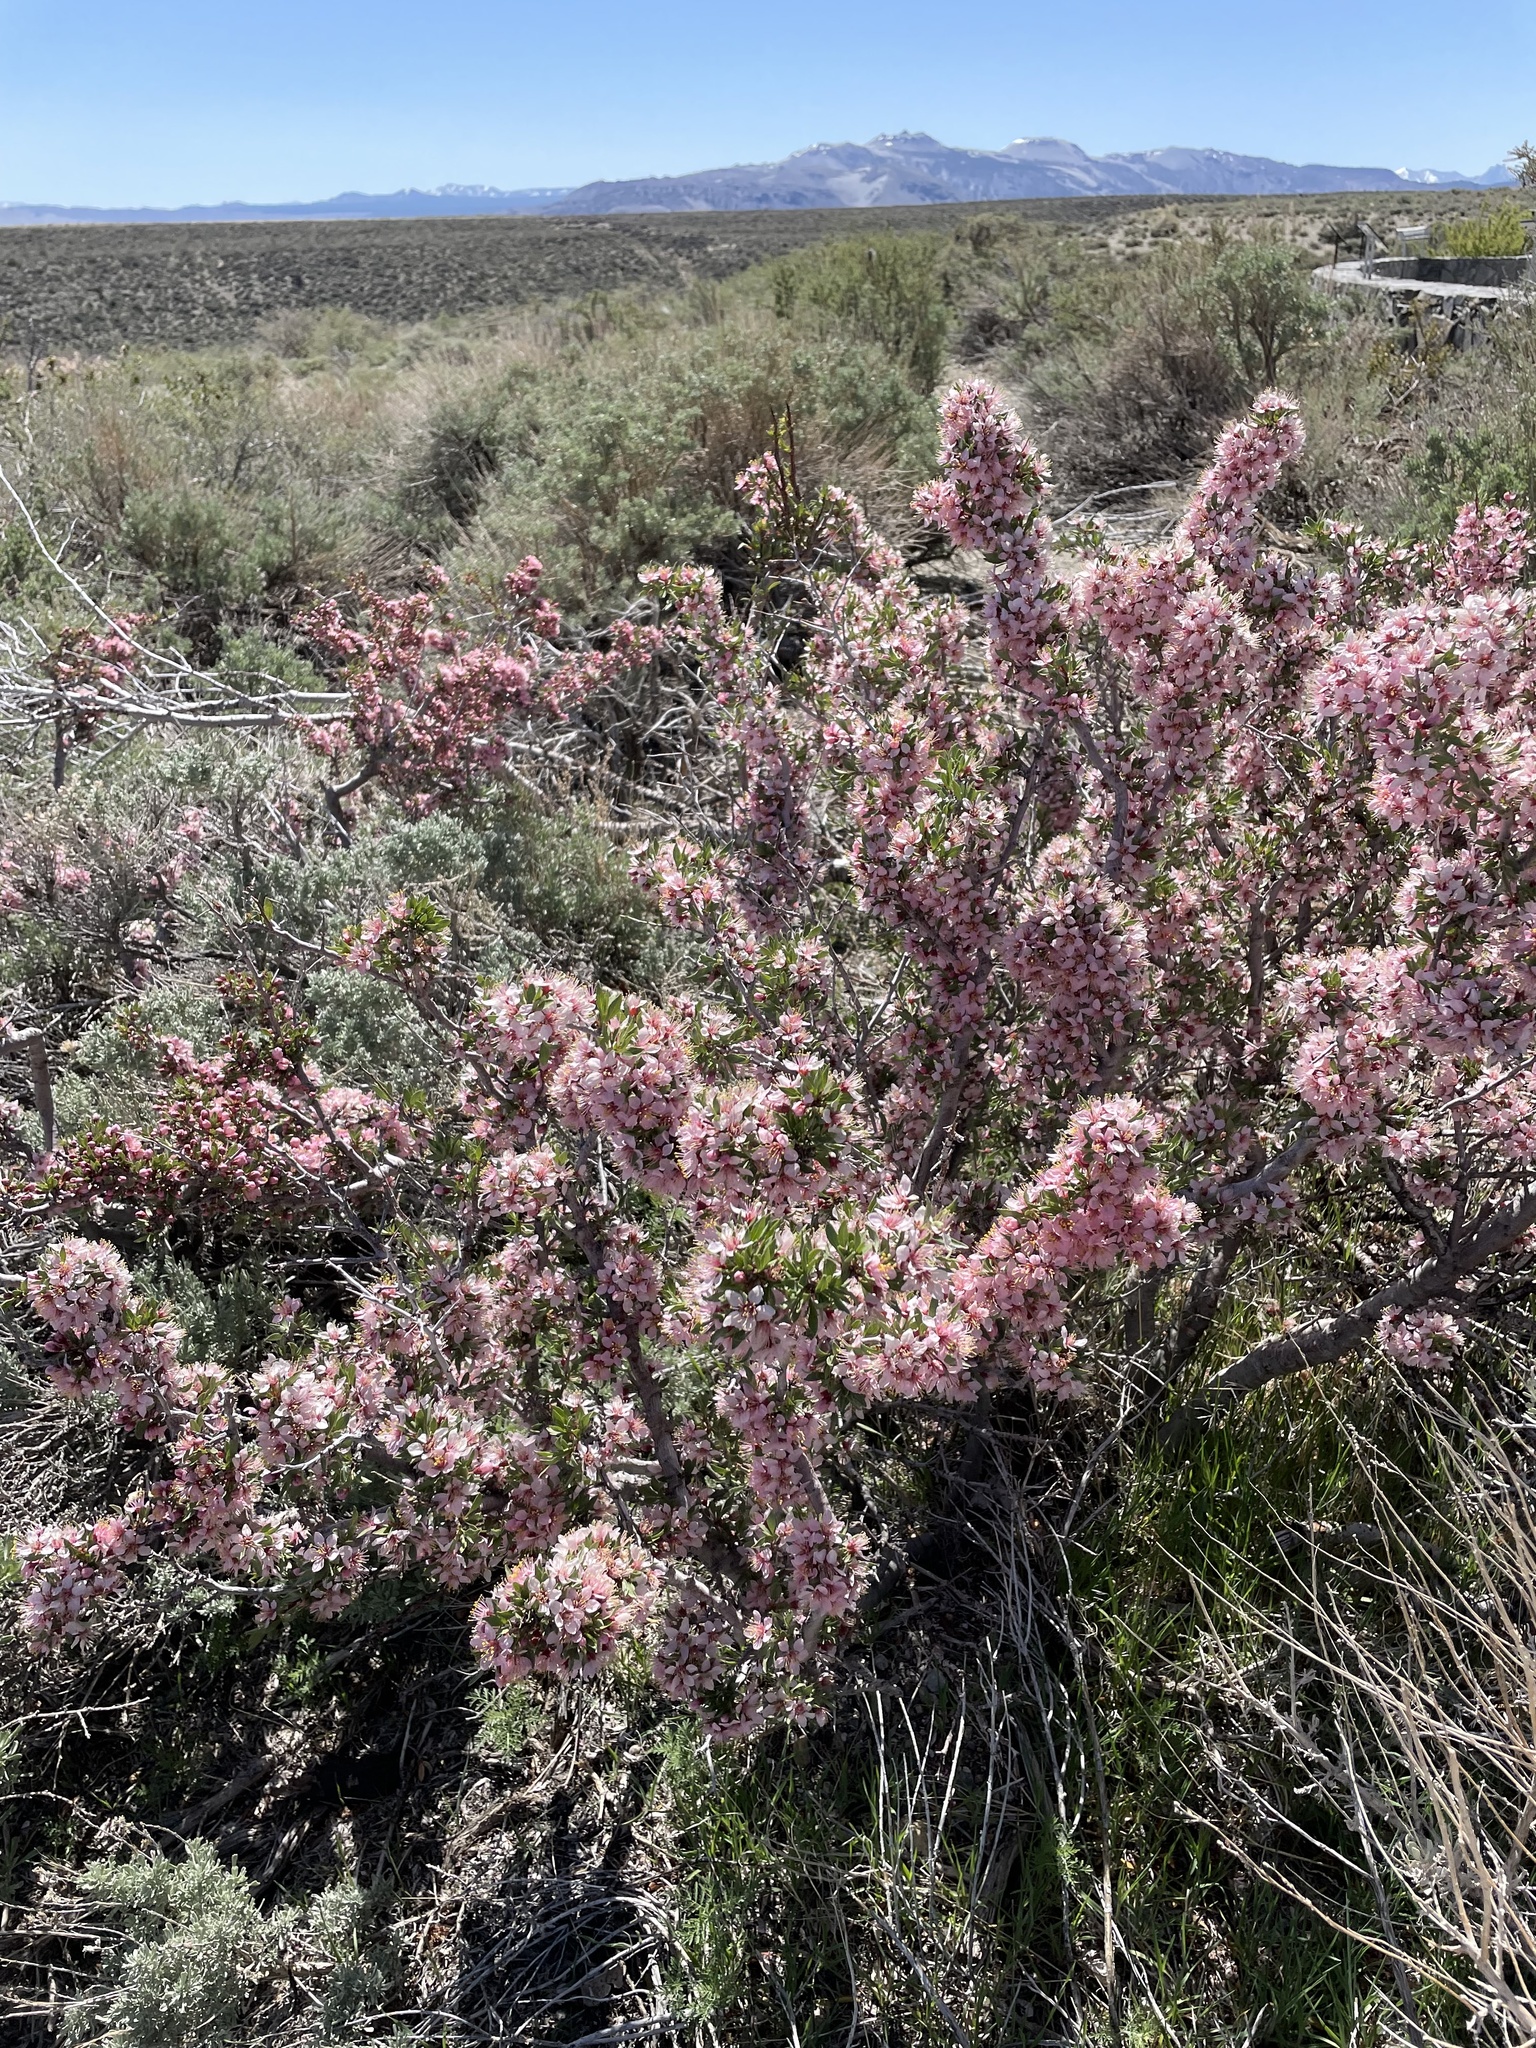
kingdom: Plantae
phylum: Tracheophyta
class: Magnoliopsida
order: Rosales
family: Rosaceae
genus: Prunus
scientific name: Prunus andersonii
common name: Desert peach
